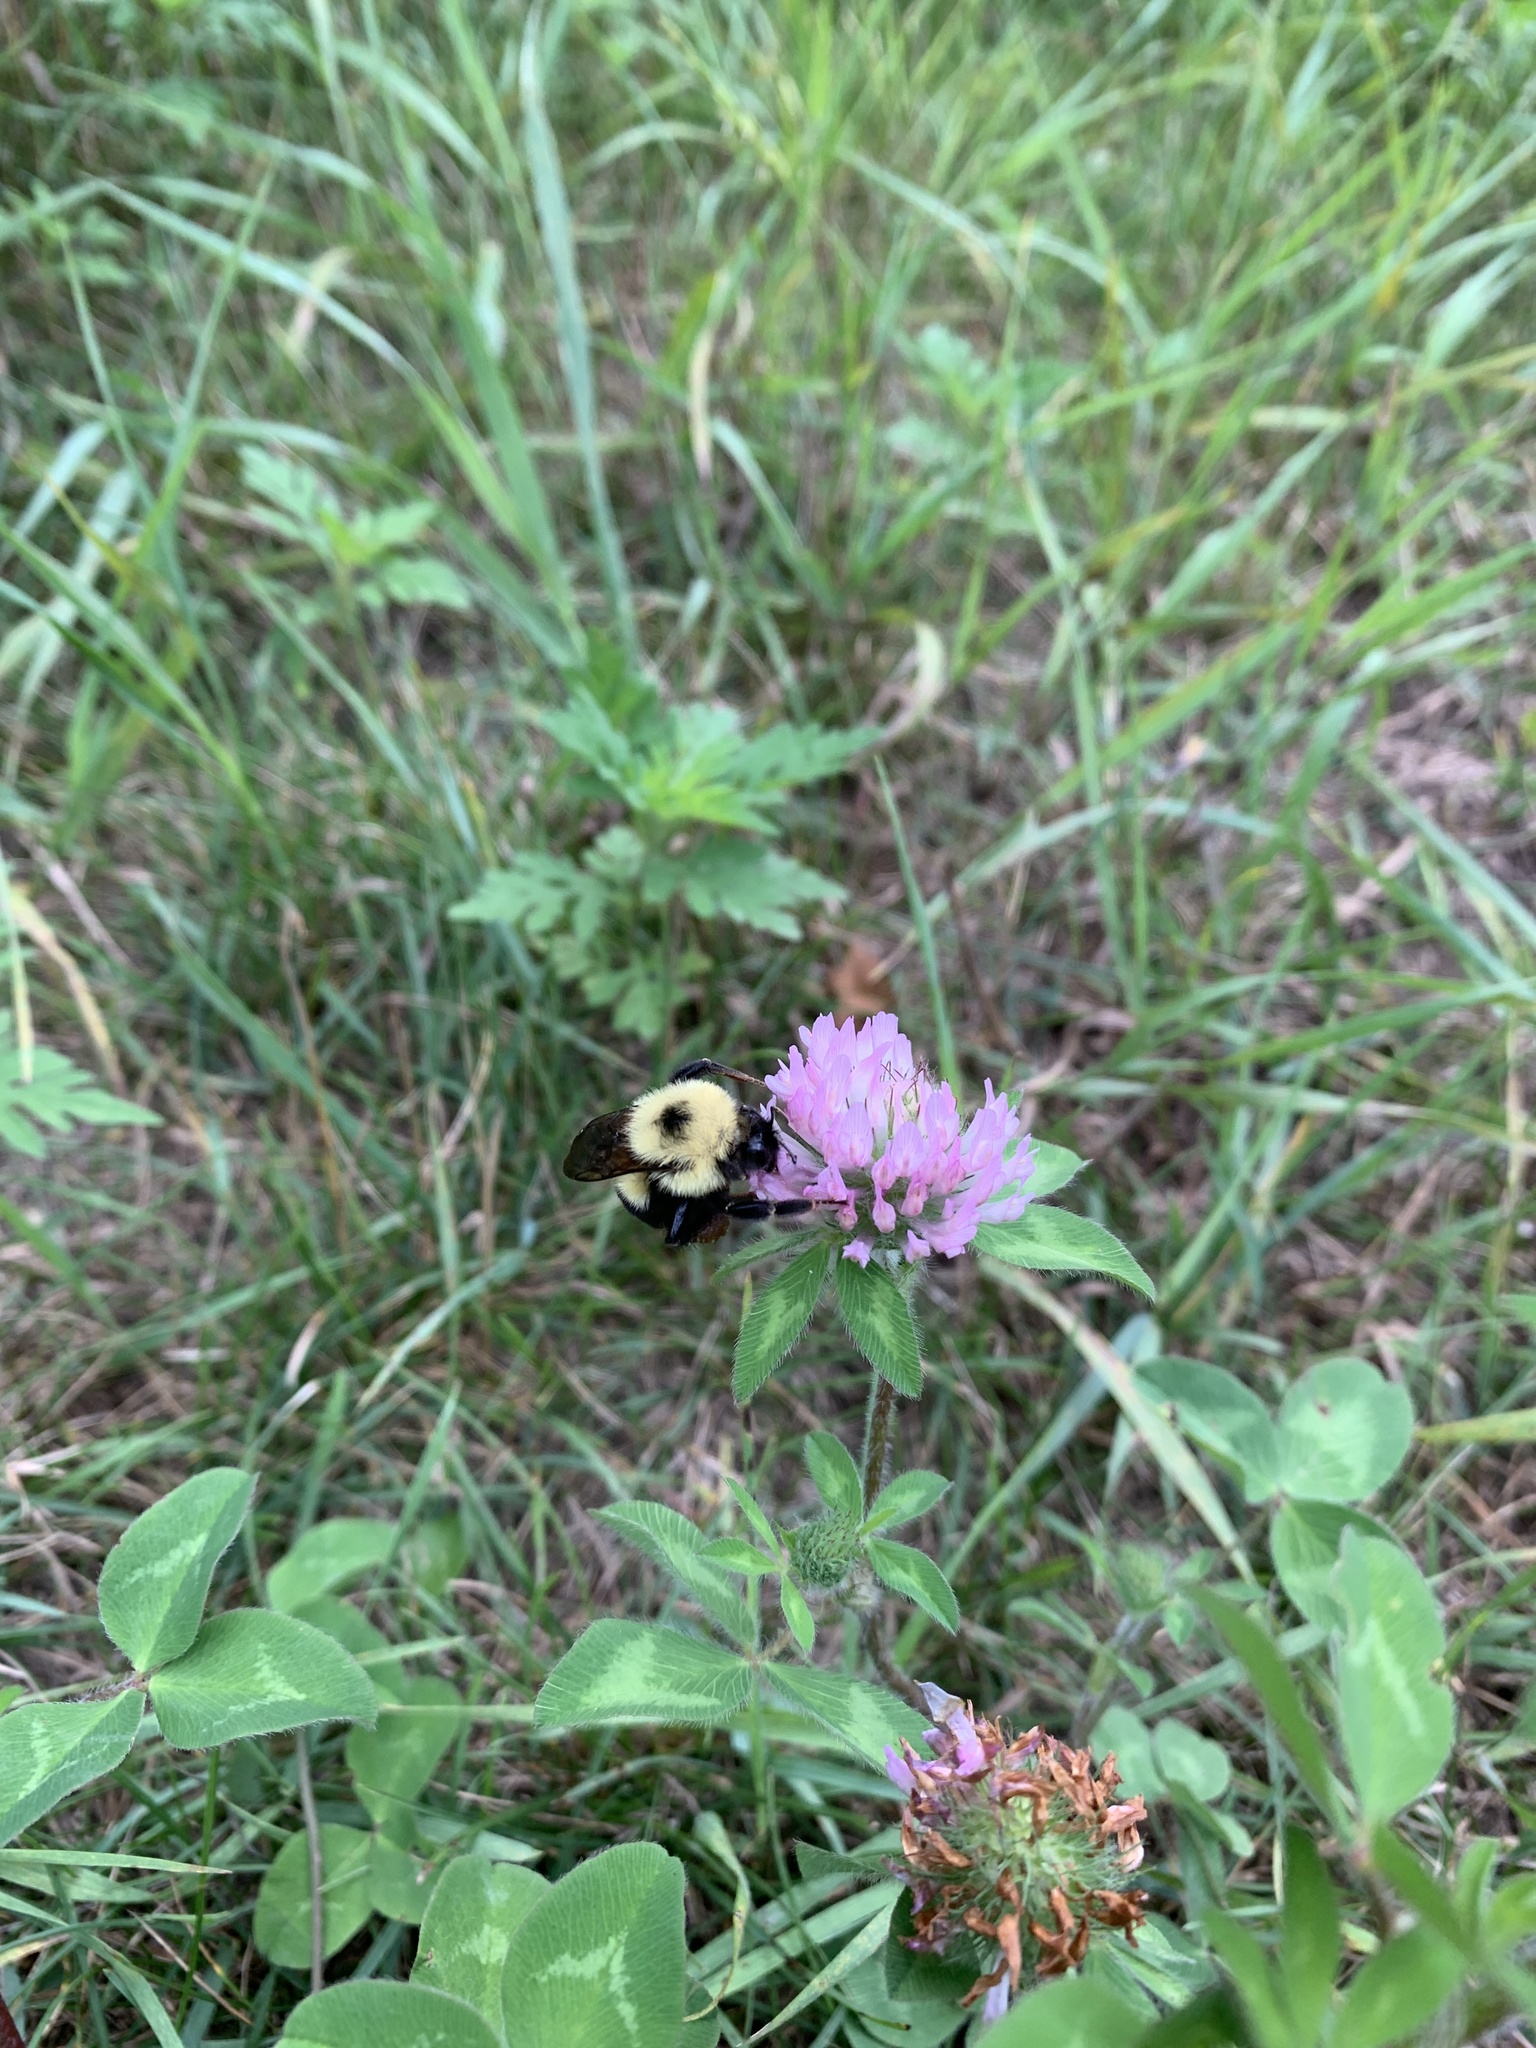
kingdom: Animalia
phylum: Arthropoda
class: Insecta
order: Hymenoptera
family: Apidae
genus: Bombus
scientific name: Bombus bimaculatus
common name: Two-spotted bumble bee
